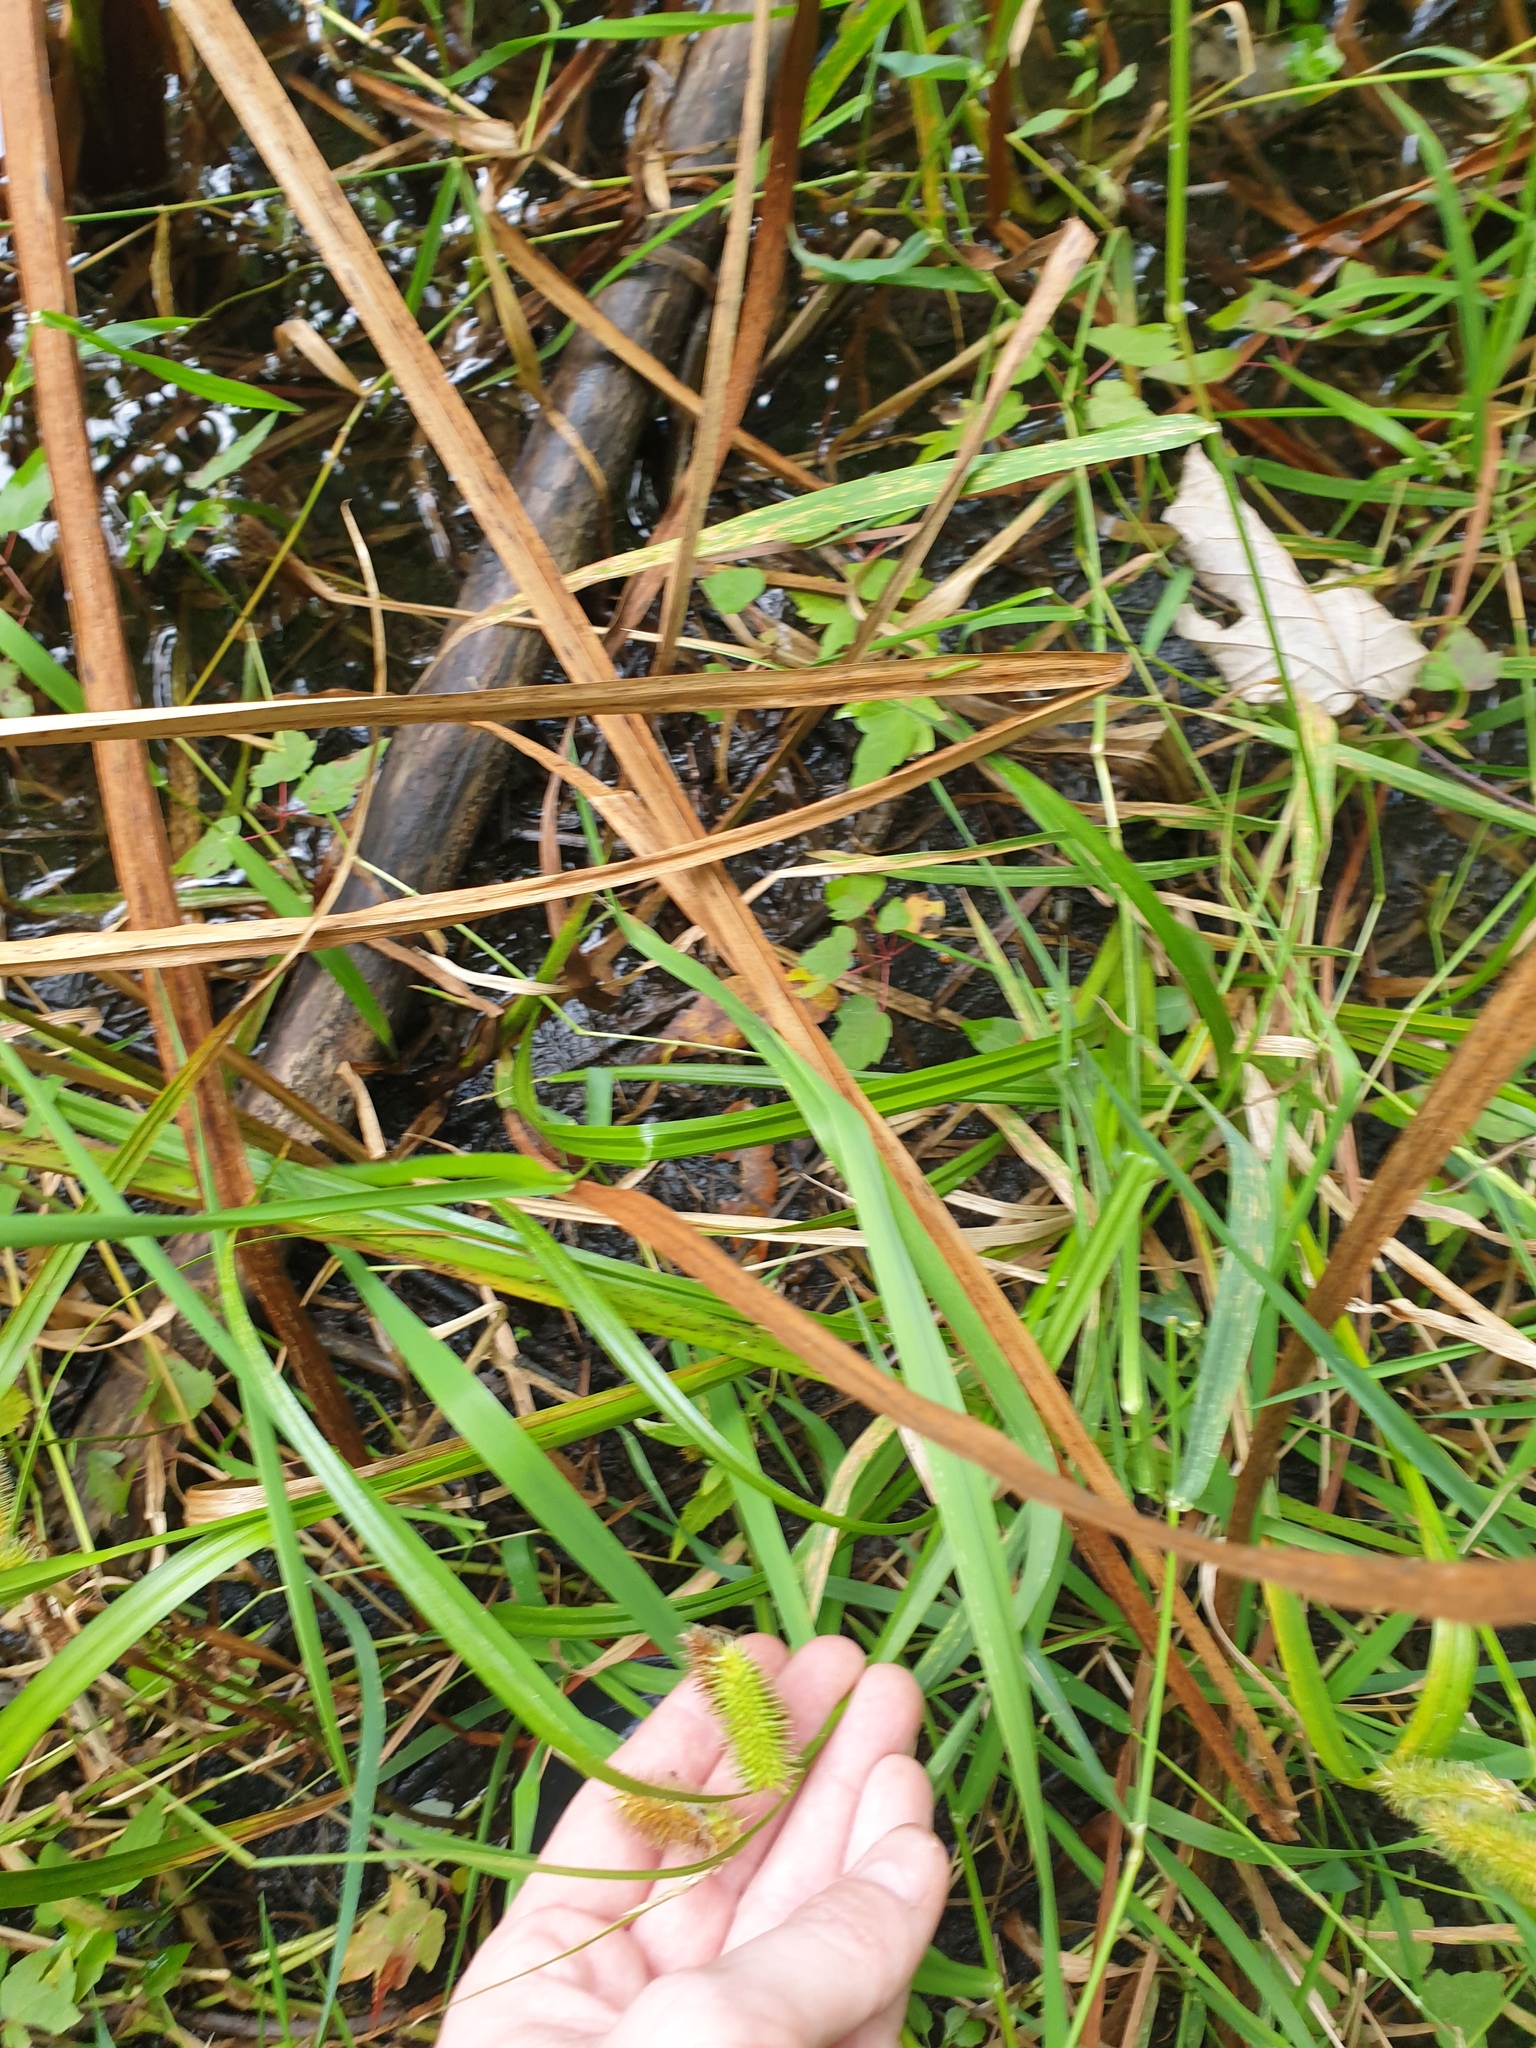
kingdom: Plantae
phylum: Tracheophyta
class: Liliopsida
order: Poales
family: Cyperaceae
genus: Carex
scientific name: Carex comosa
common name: Bristly sedge
